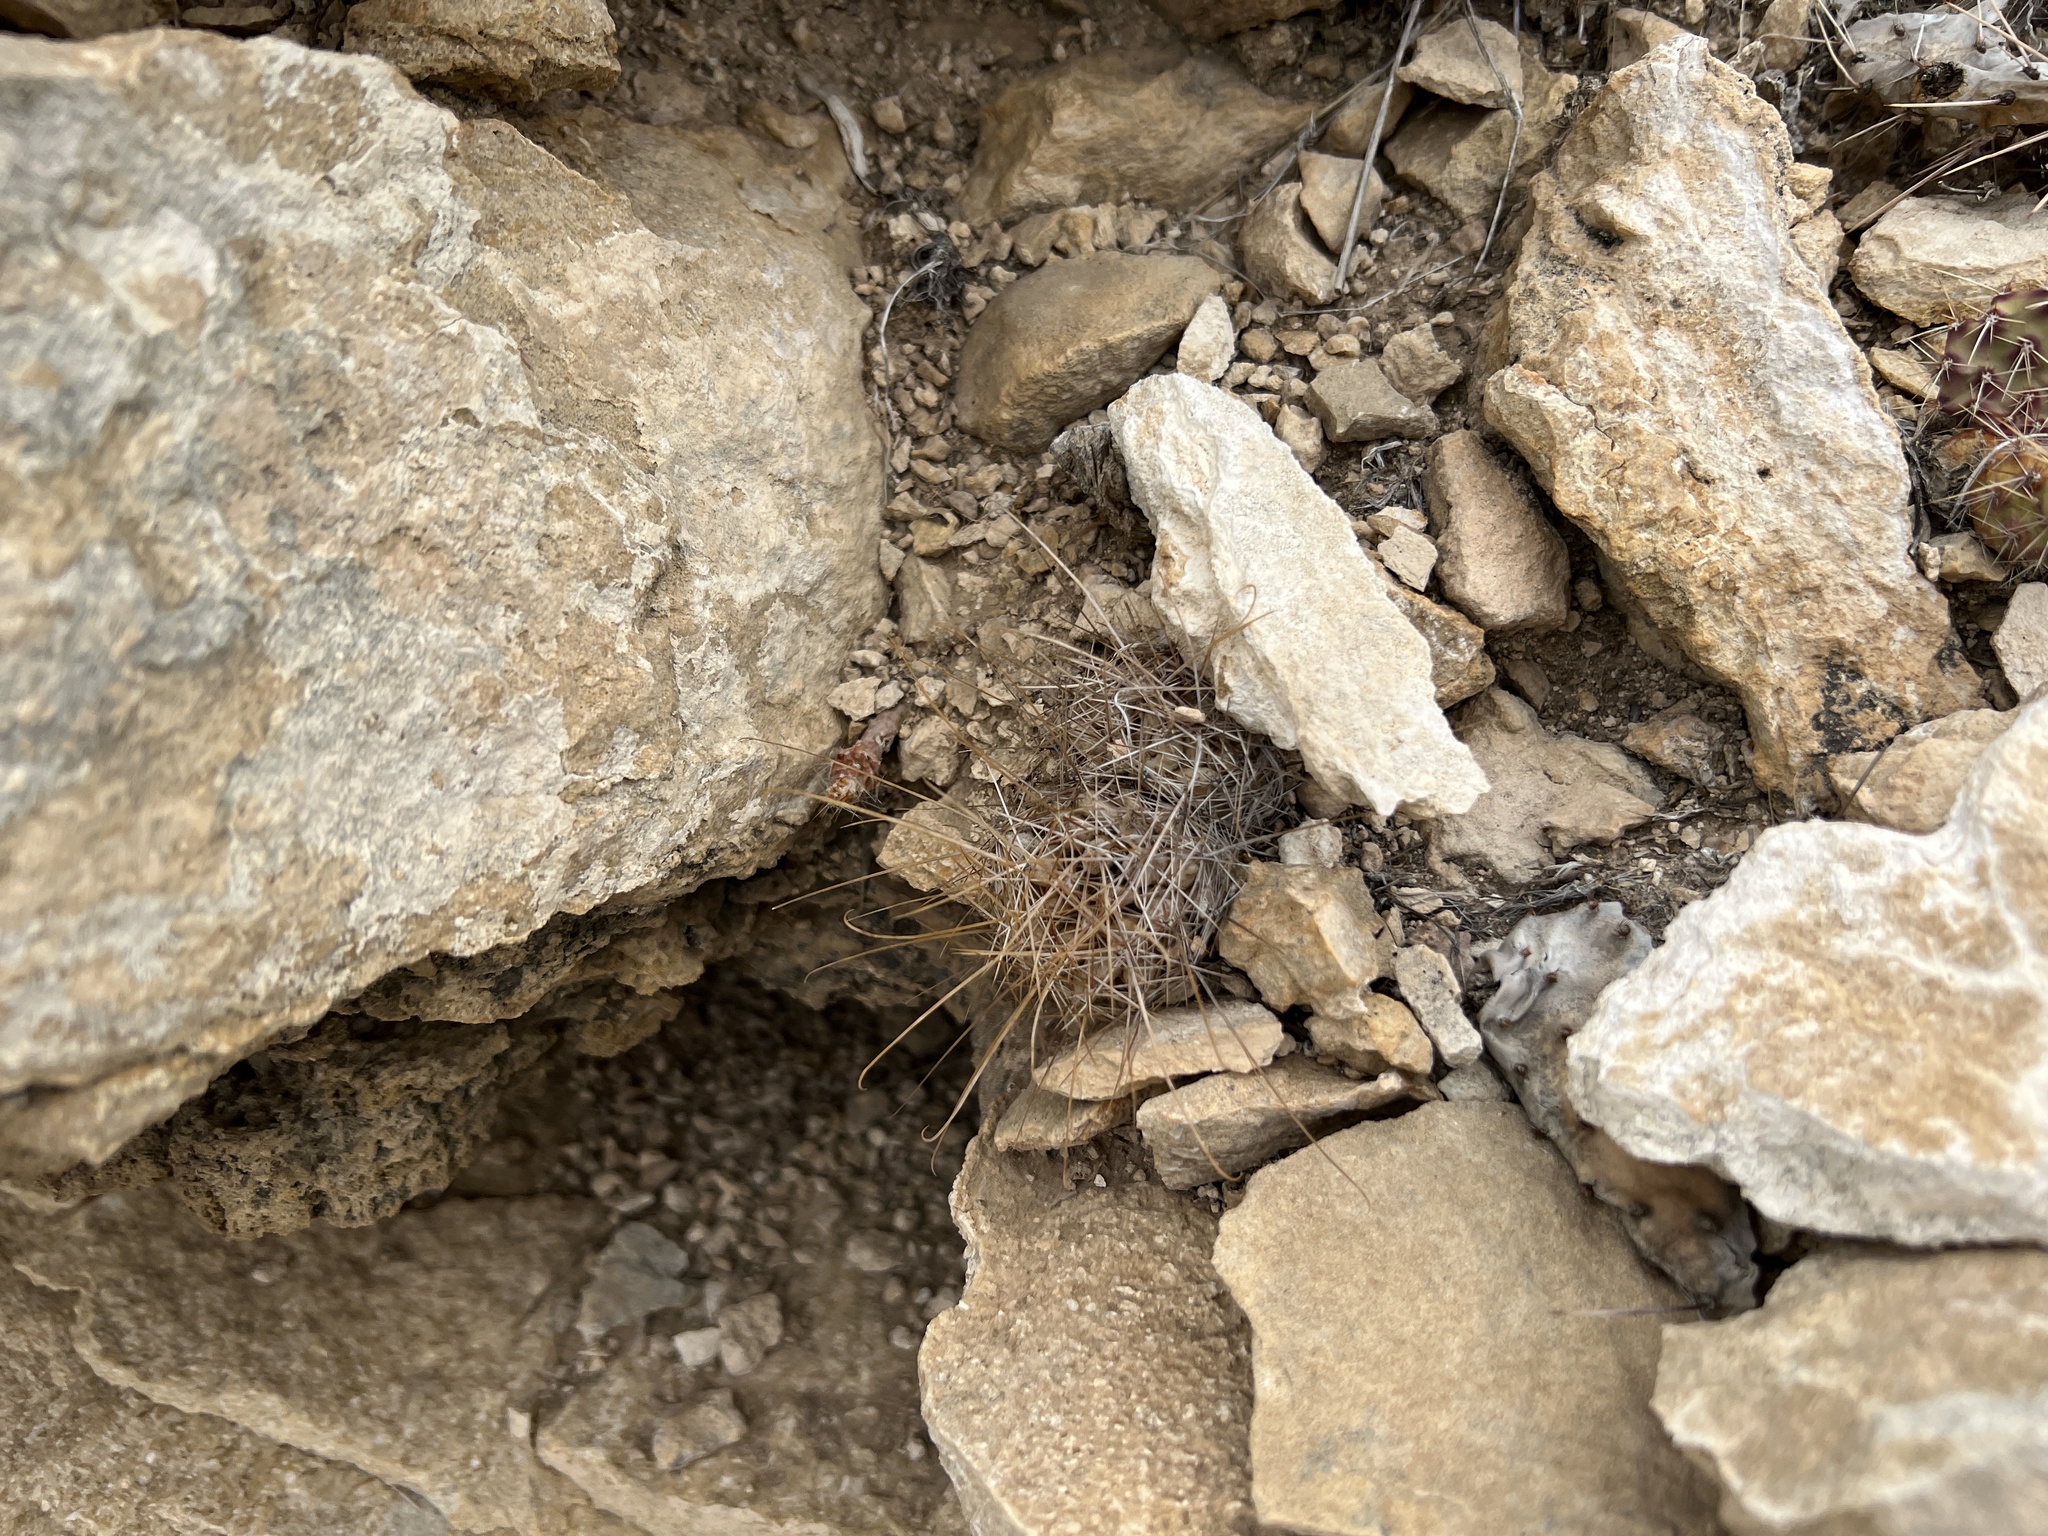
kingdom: Plantae
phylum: Tracheophyta
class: Magnoliopsida
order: Caryophyllales
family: Cactaceae
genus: Bisnaga
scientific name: Bisnaga hamatacantha
